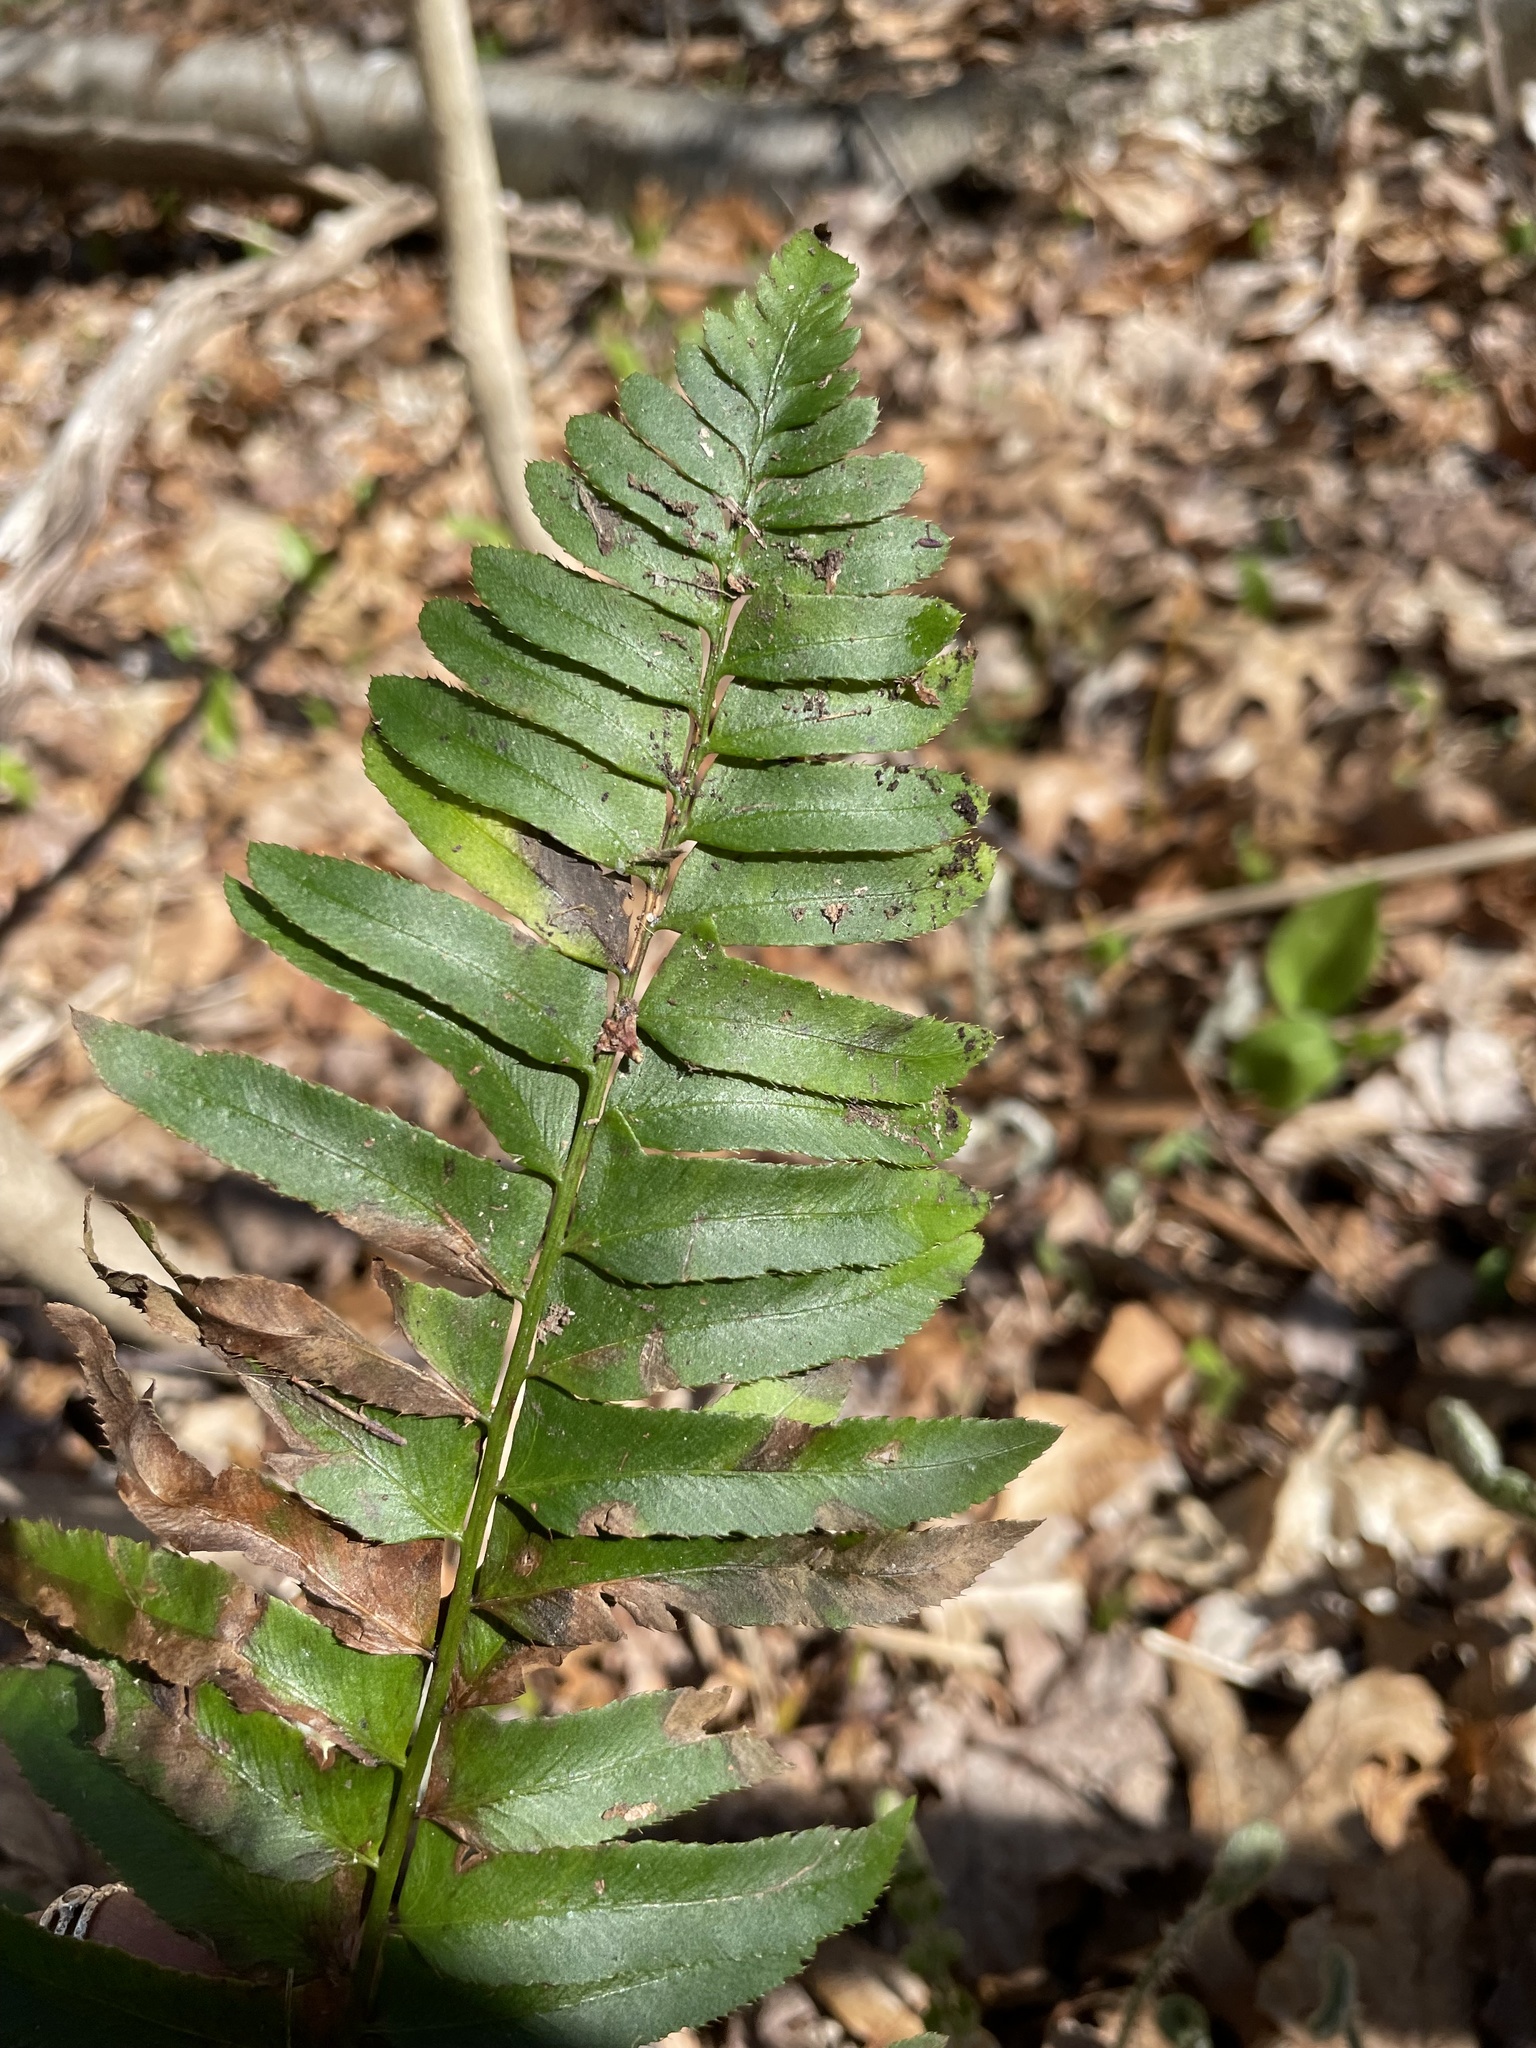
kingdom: Plantae
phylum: Tracheophyta
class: Polypodiopsida
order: Polypodiales
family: Dryopteridaceae
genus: Polystichum
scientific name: Polystichum acrostichoides
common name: Christmas fern
